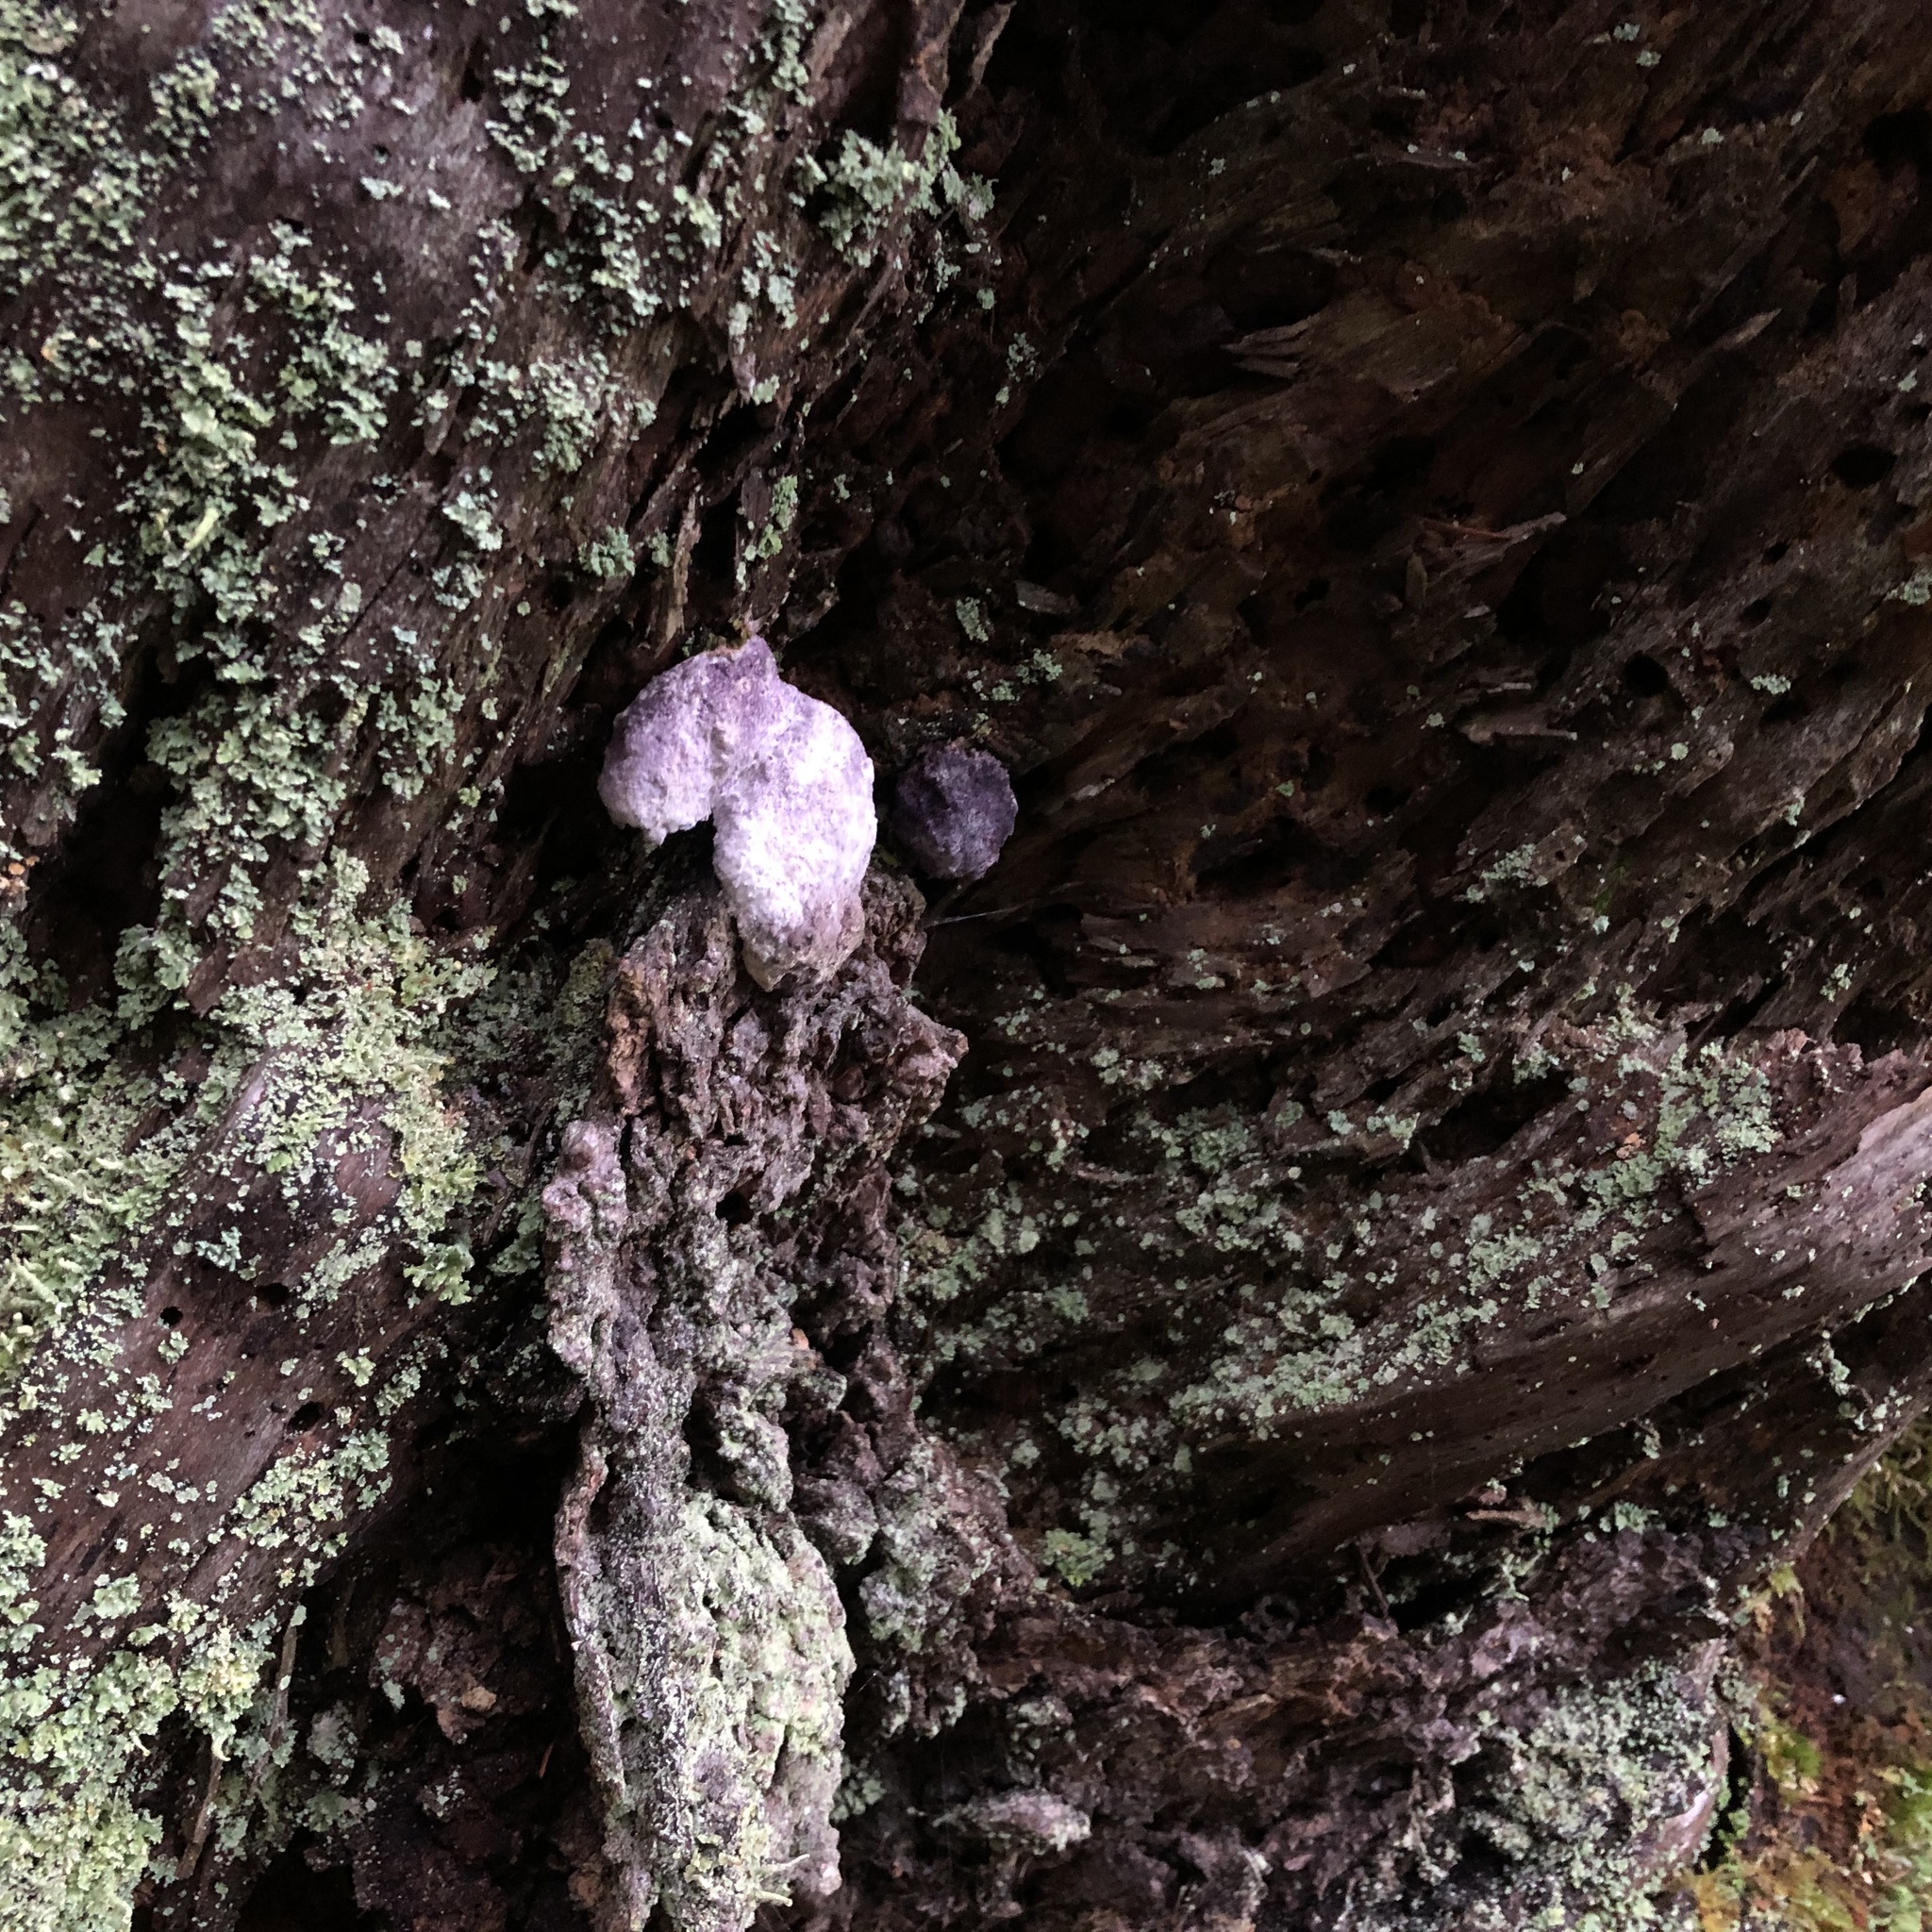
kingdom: Fungi
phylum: Ascomycota
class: Sordariomycetes
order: Hypocreales
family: Bionectriaceae
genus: Nectriopsis
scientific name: Nectriopsis violacea
